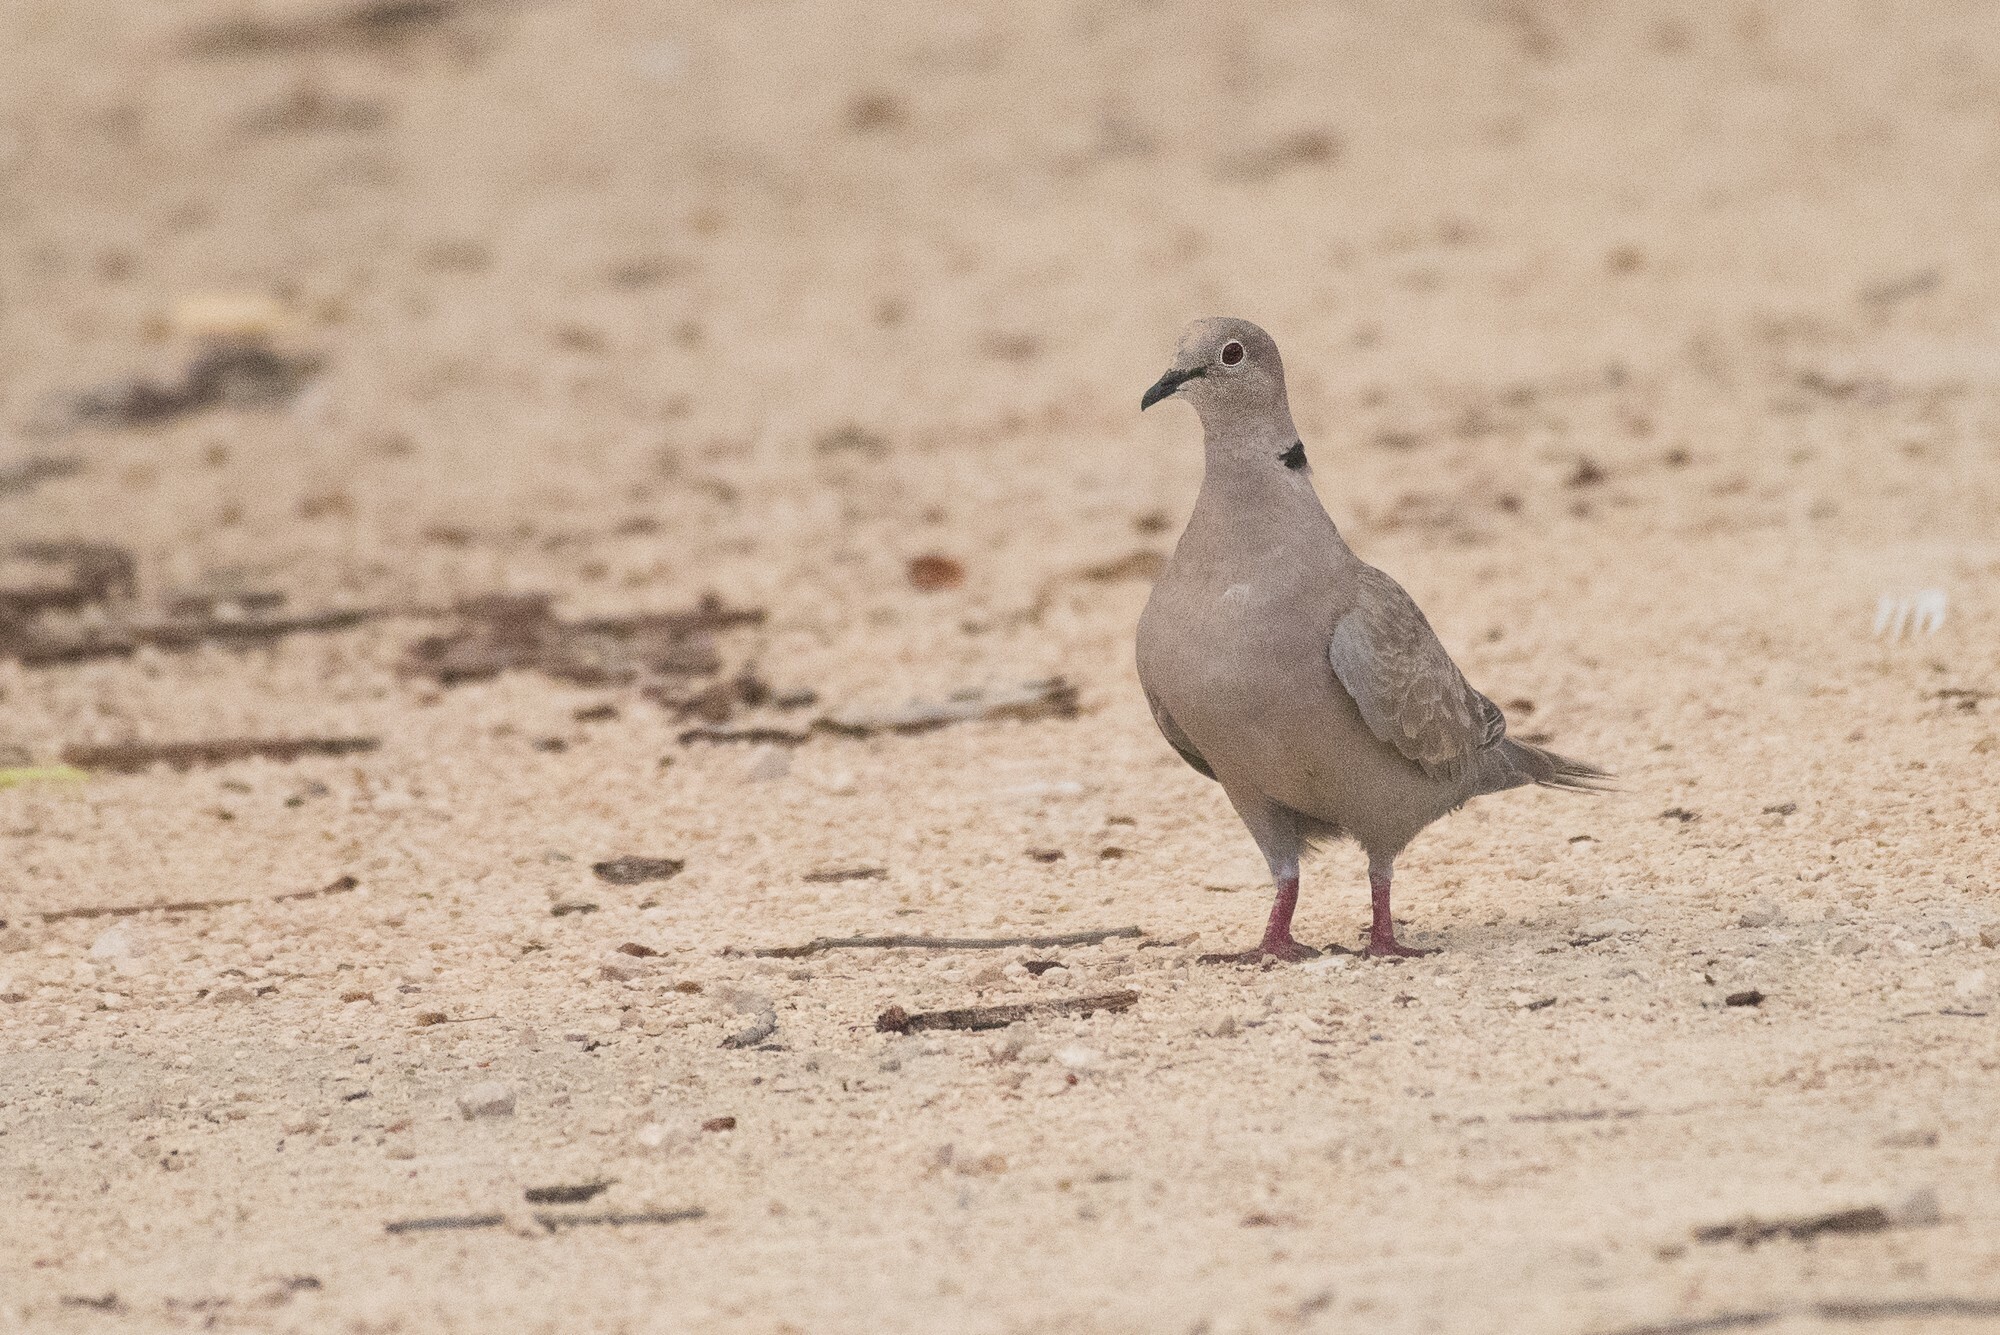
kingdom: Animalia
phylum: Chordata
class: Aves
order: Columbiformes
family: Columbidae
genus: Streptopelia
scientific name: Streptopelia decaocto
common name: Eurasian collared dove
